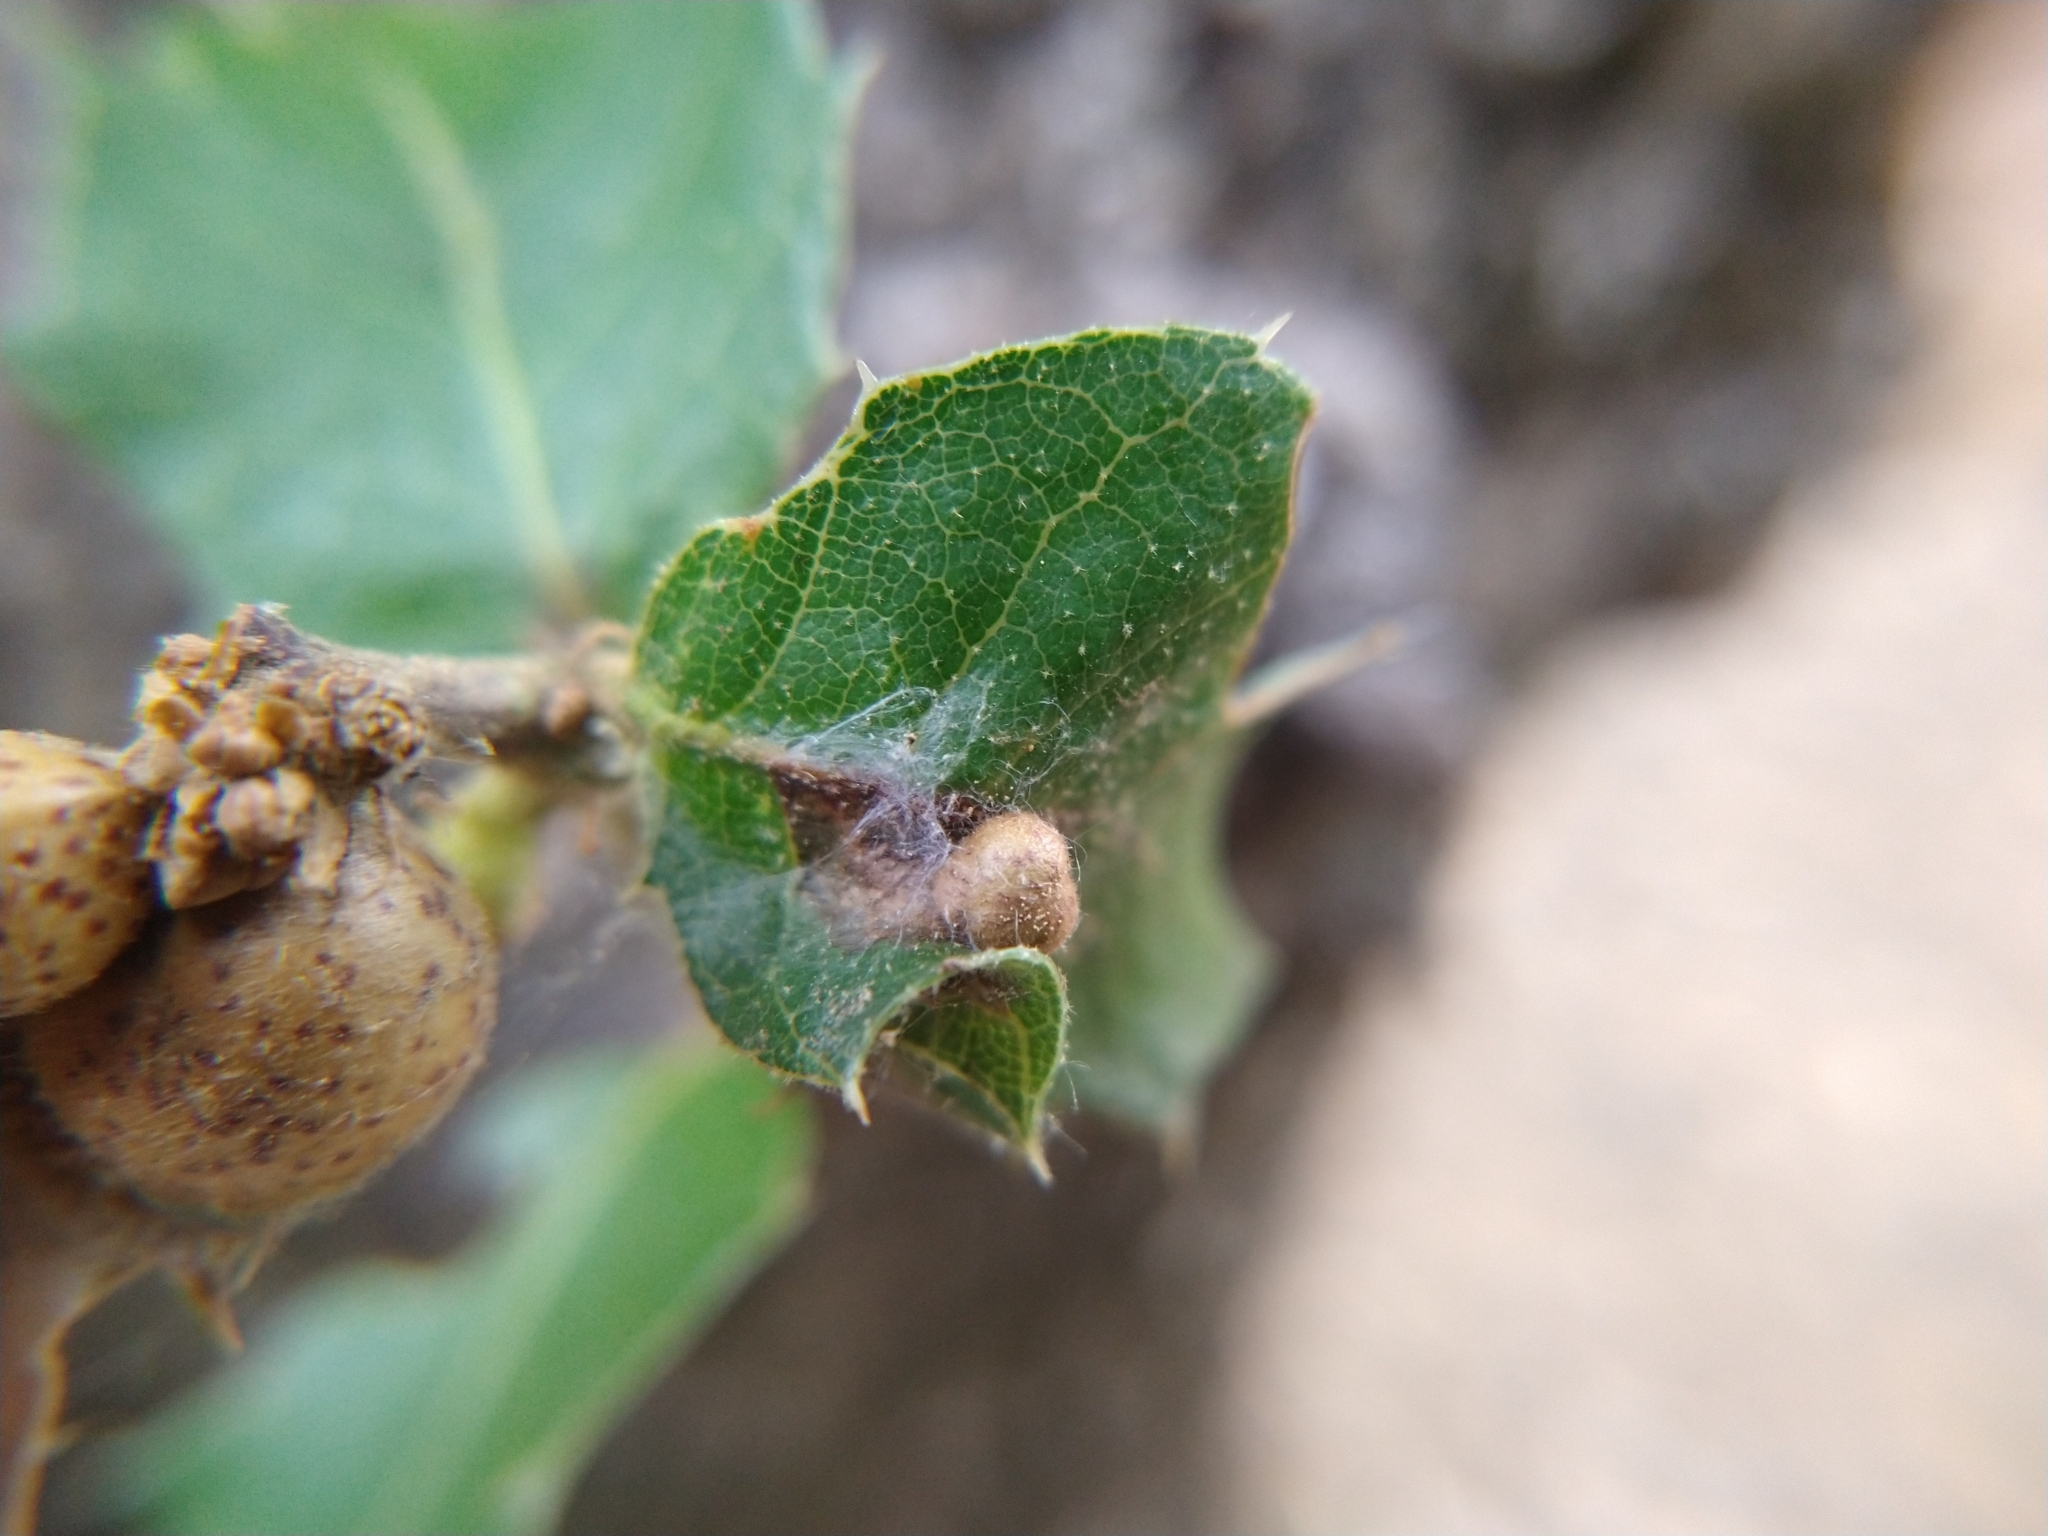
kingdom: Animalia
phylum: Arthropoda
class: Insecta
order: Hymenoptera
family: Cynipidae
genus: Heteroecus
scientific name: Heteroecus
